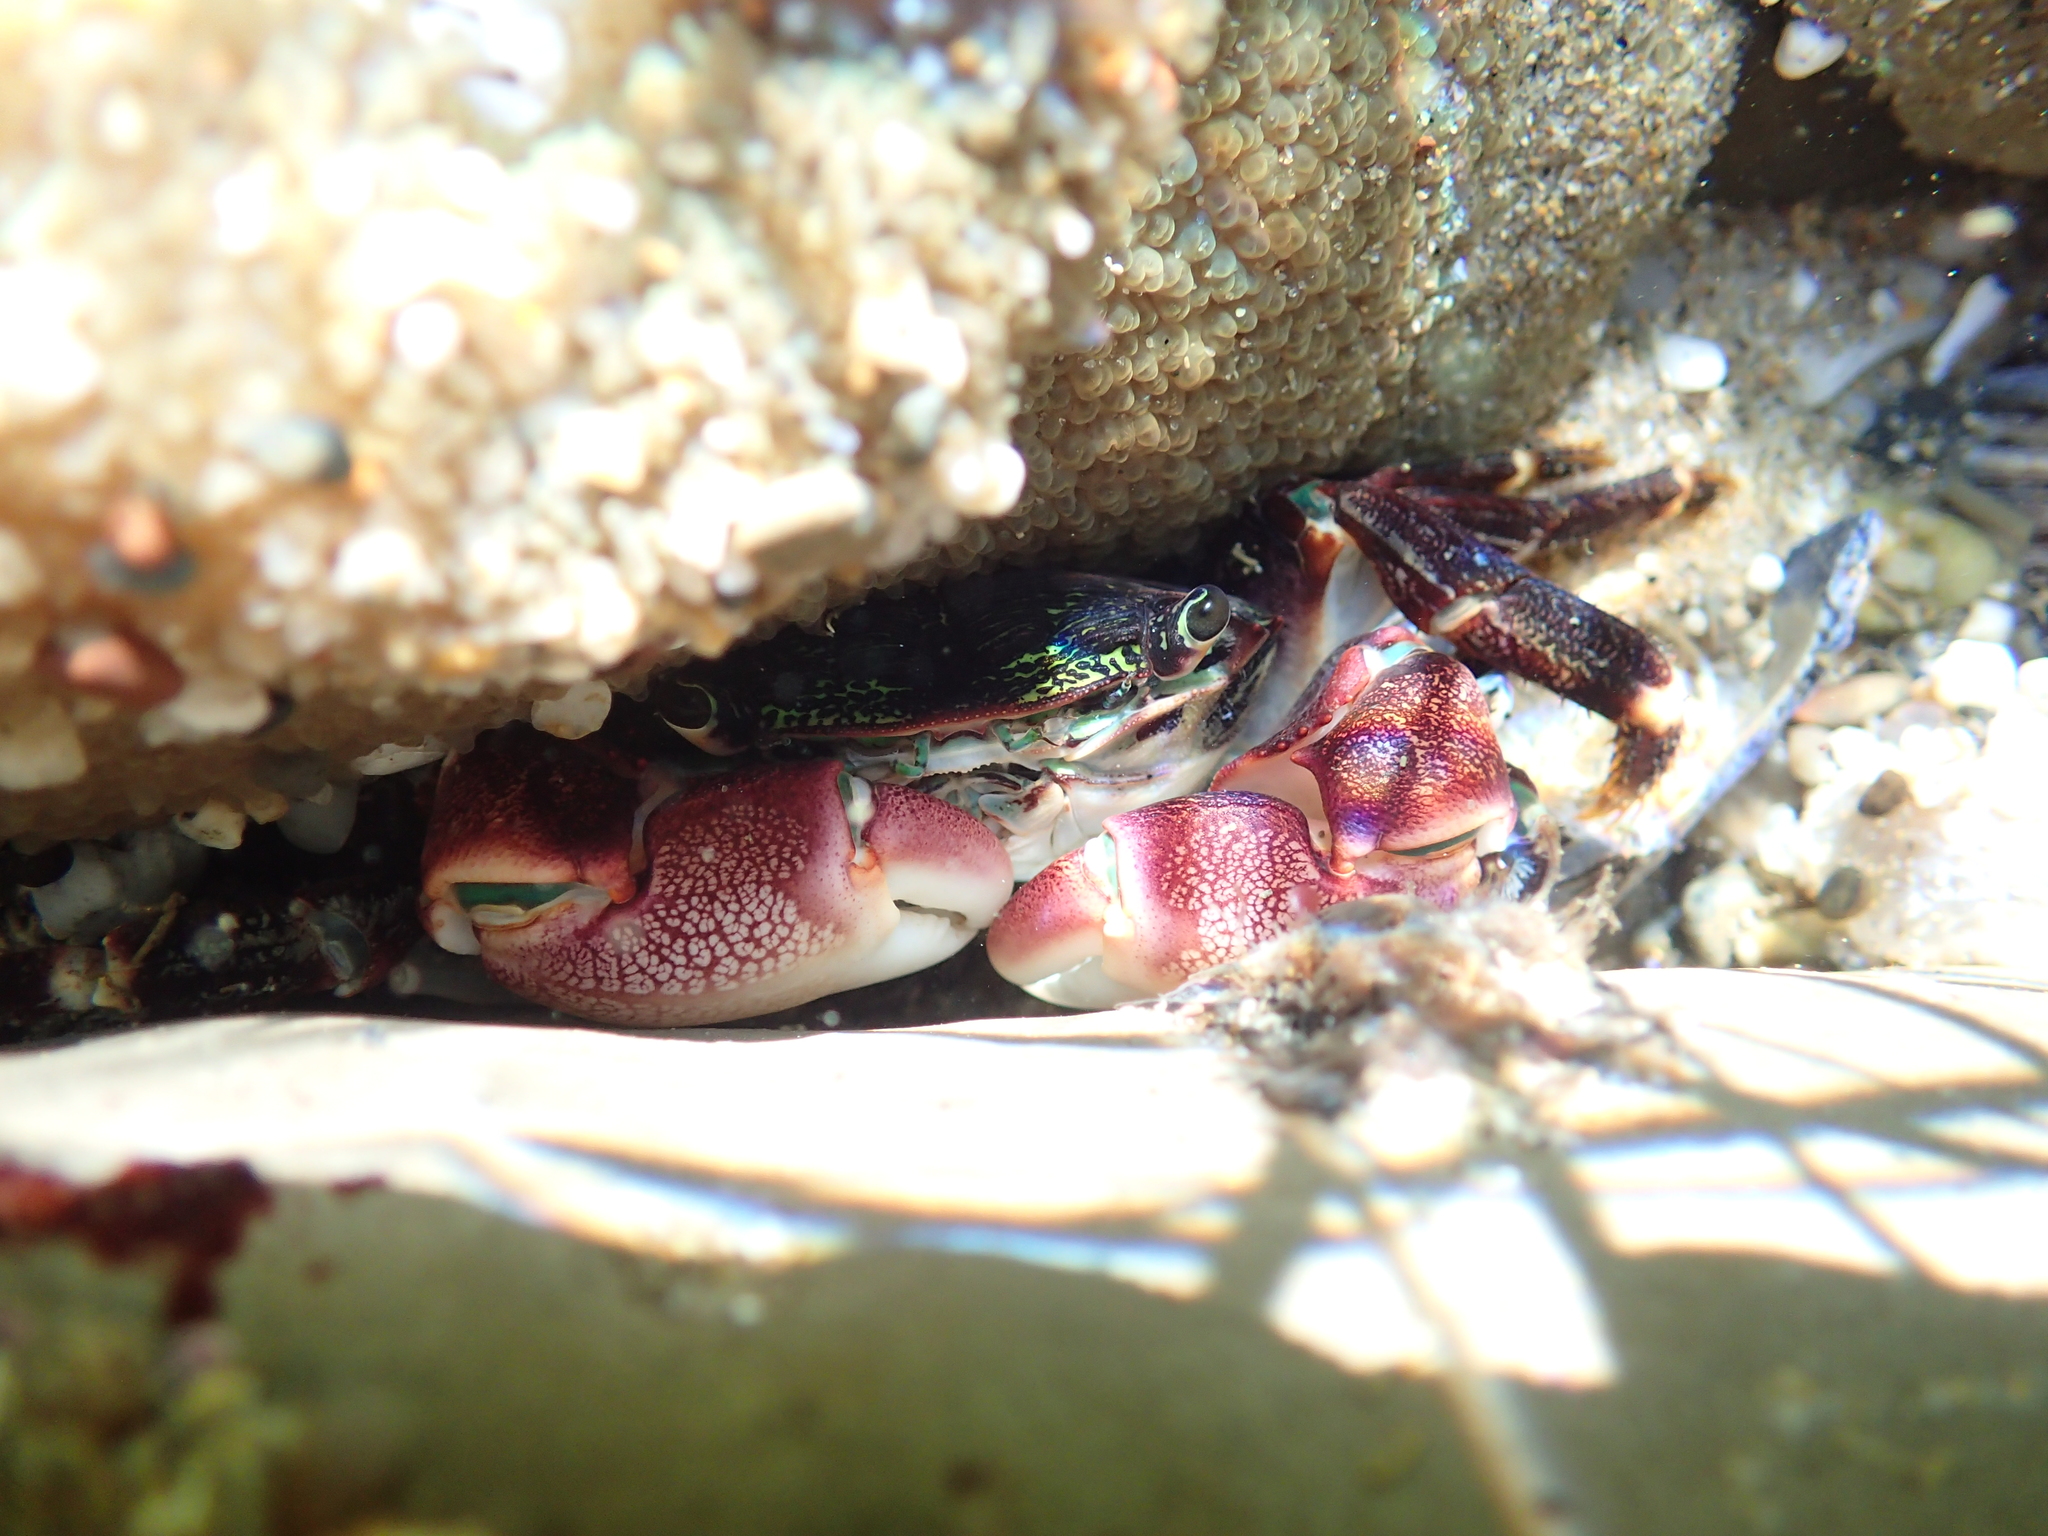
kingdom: Animalia
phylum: Arthropoda
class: Malacostraca
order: Decapoda
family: Grapsidae
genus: Pachygrapsus
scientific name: Pachygrapsus crassipes
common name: Striped shore crab
